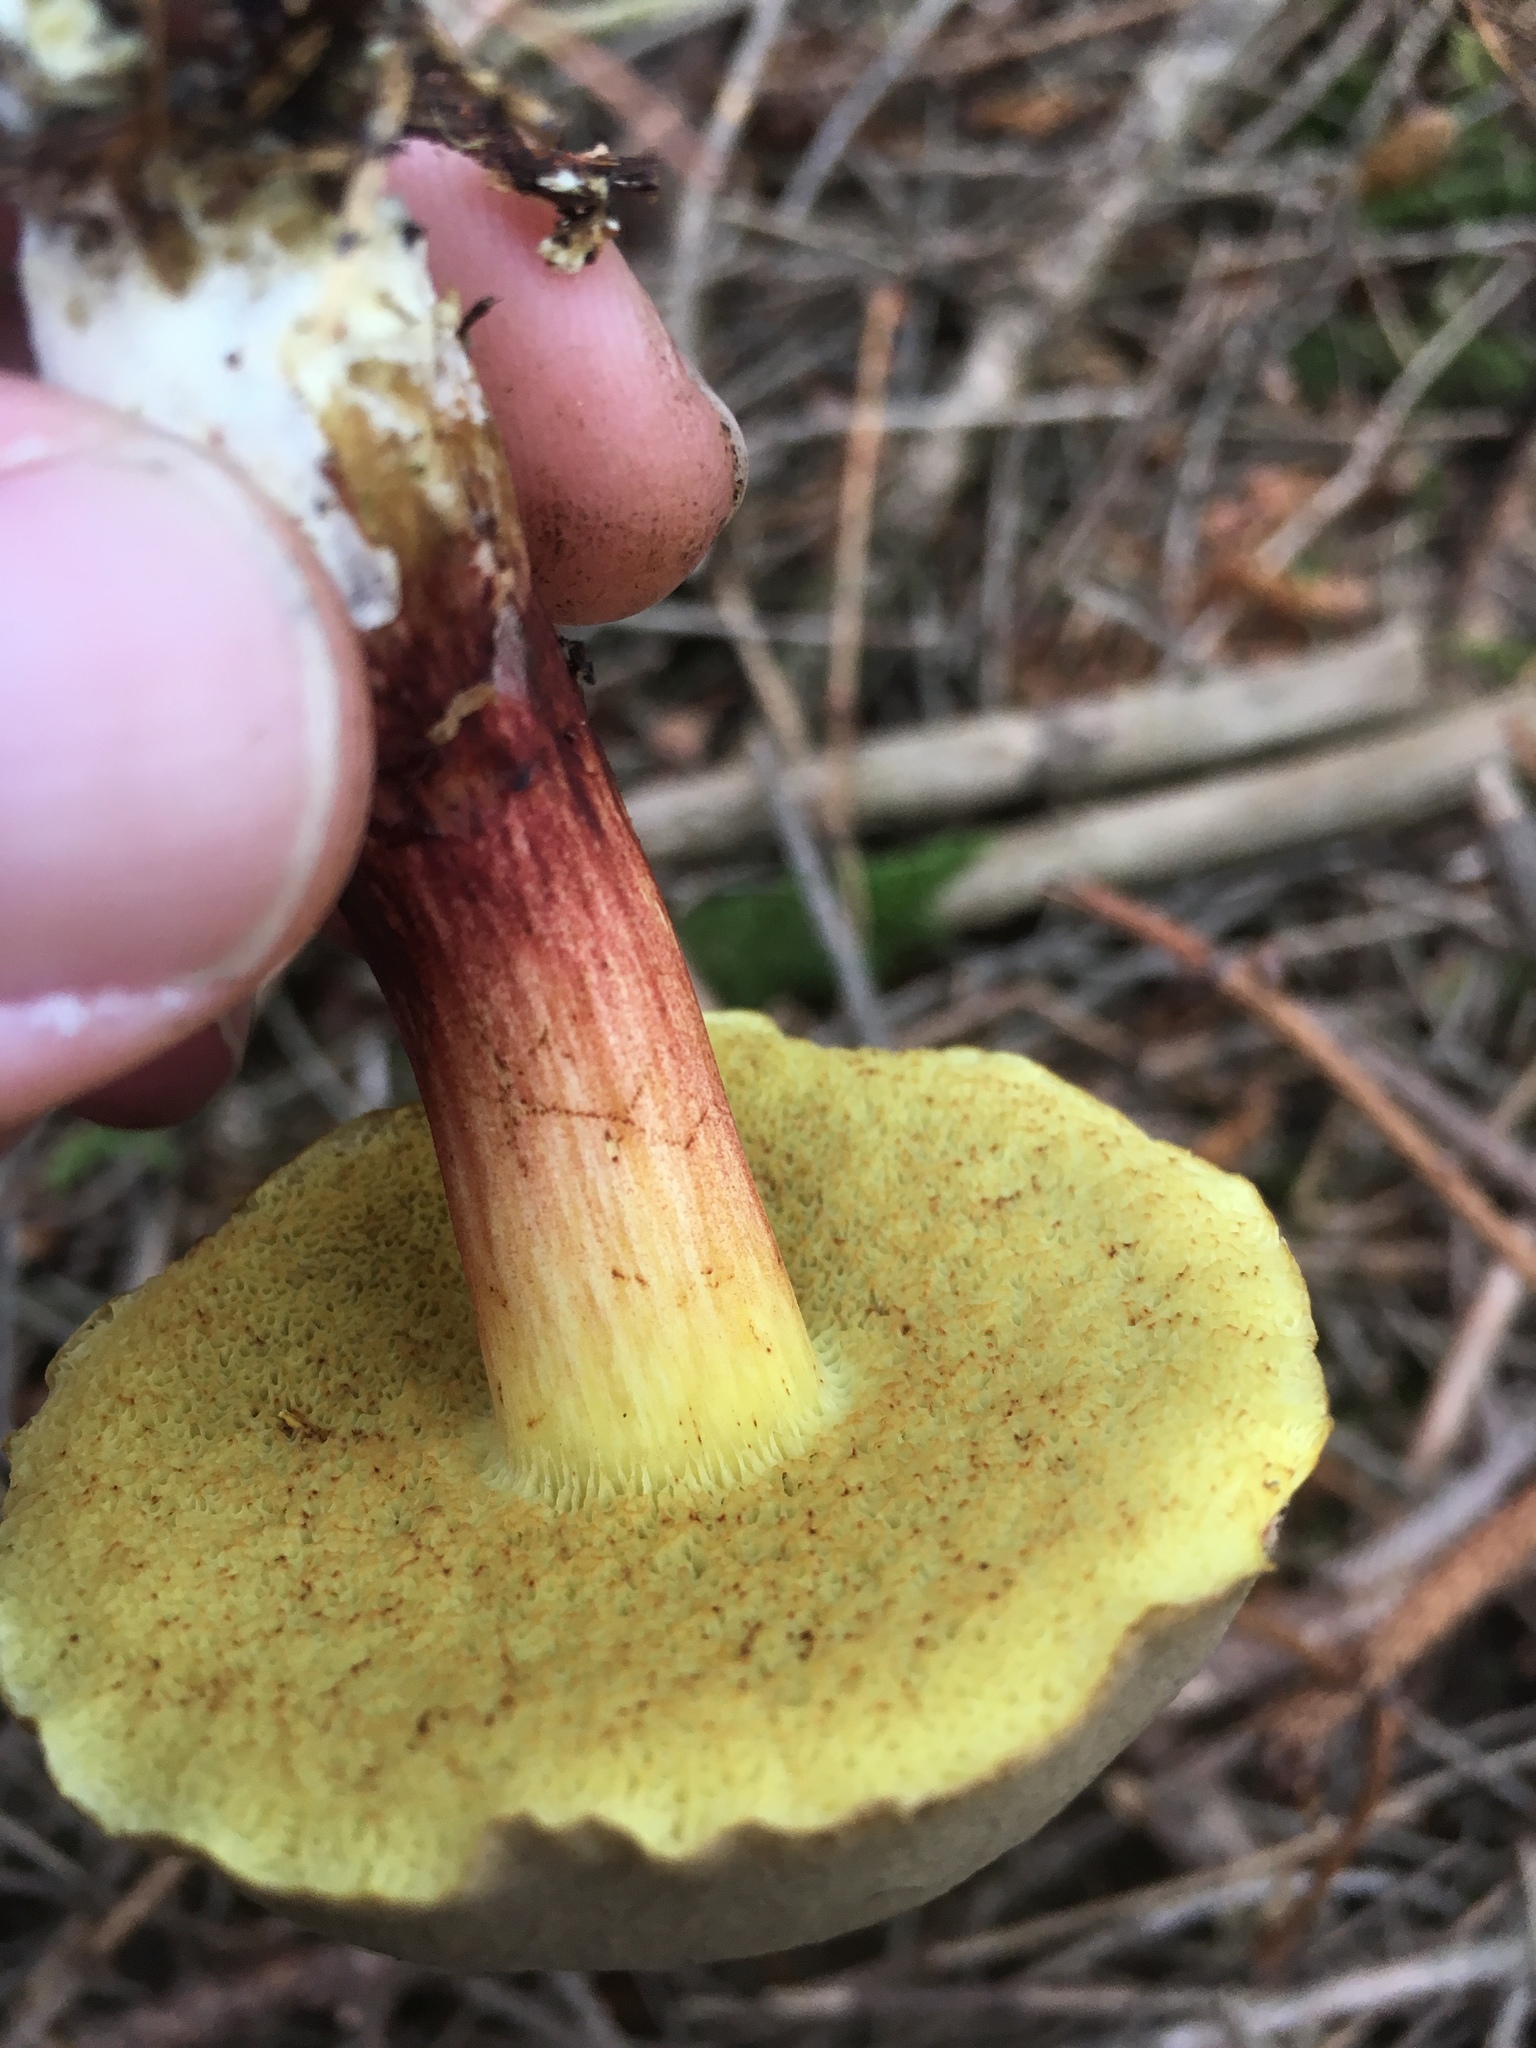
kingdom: Fungi
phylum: Basidiomycota
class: Agaricomycetes
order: Boletales
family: Boletaceae
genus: Xerocomellus
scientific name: Xerocomellus chrysenteron
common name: Red-cracking bolete
